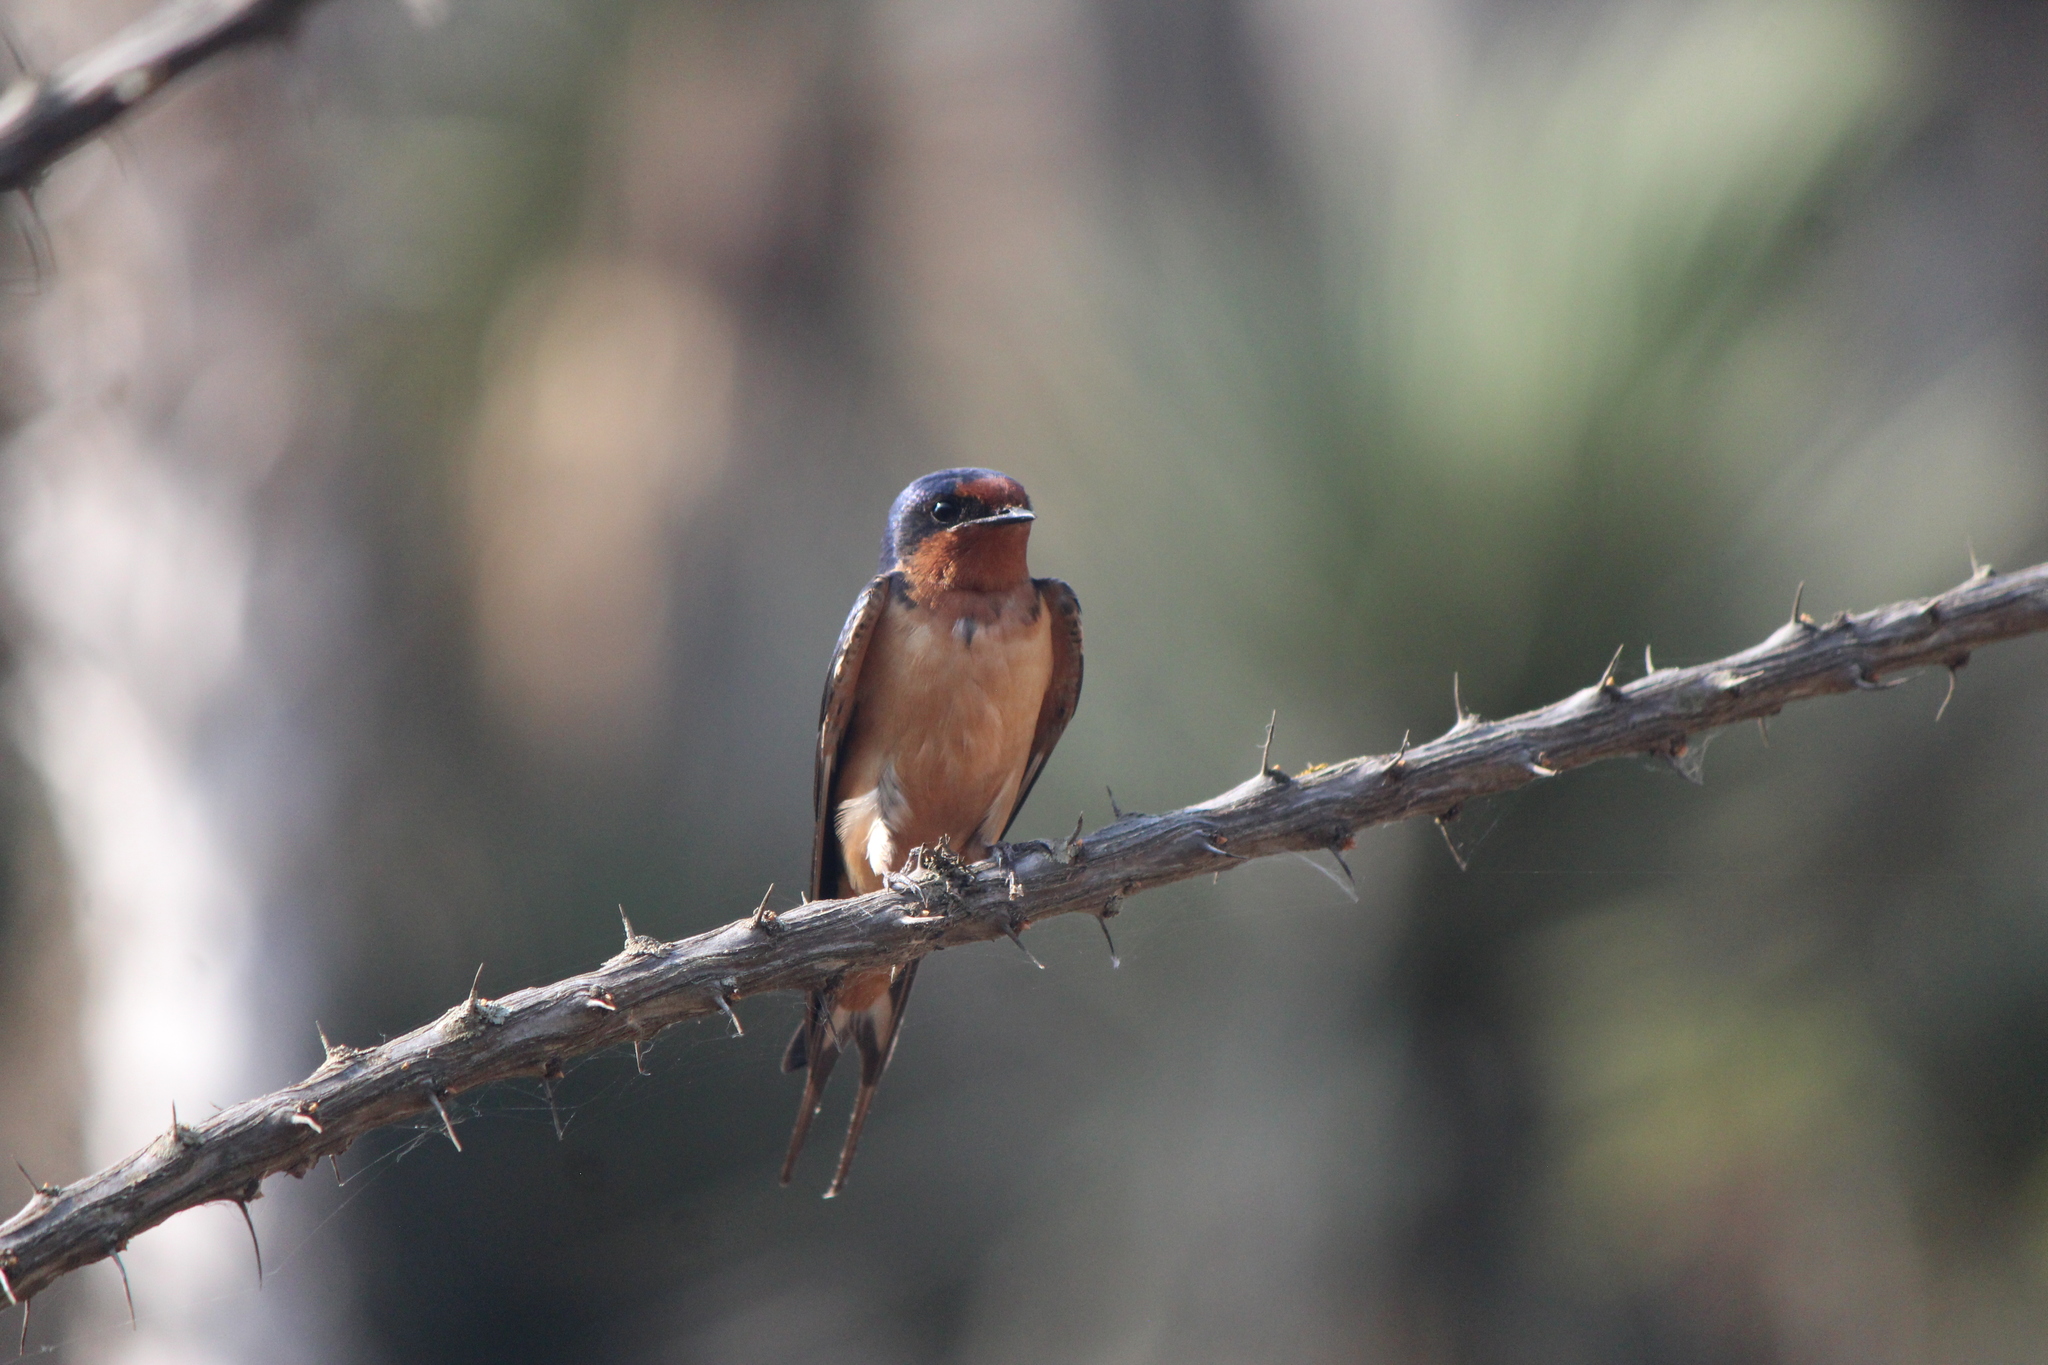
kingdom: Animalia
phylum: Chordata
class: Aves
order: Passeriformes
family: Hirundinidae
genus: Hirundo
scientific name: Hirundo rustica
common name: Barn swallow
